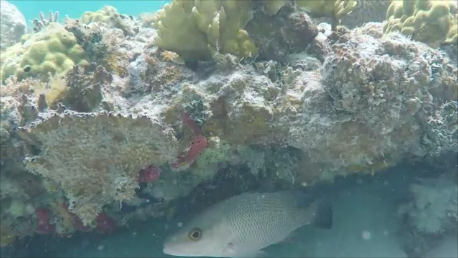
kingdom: Animalia
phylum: Chordata
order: Perciformes
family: Lutjanidae
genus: Lutjanus
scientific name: Lutjanus griseus
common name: Gray snapper
